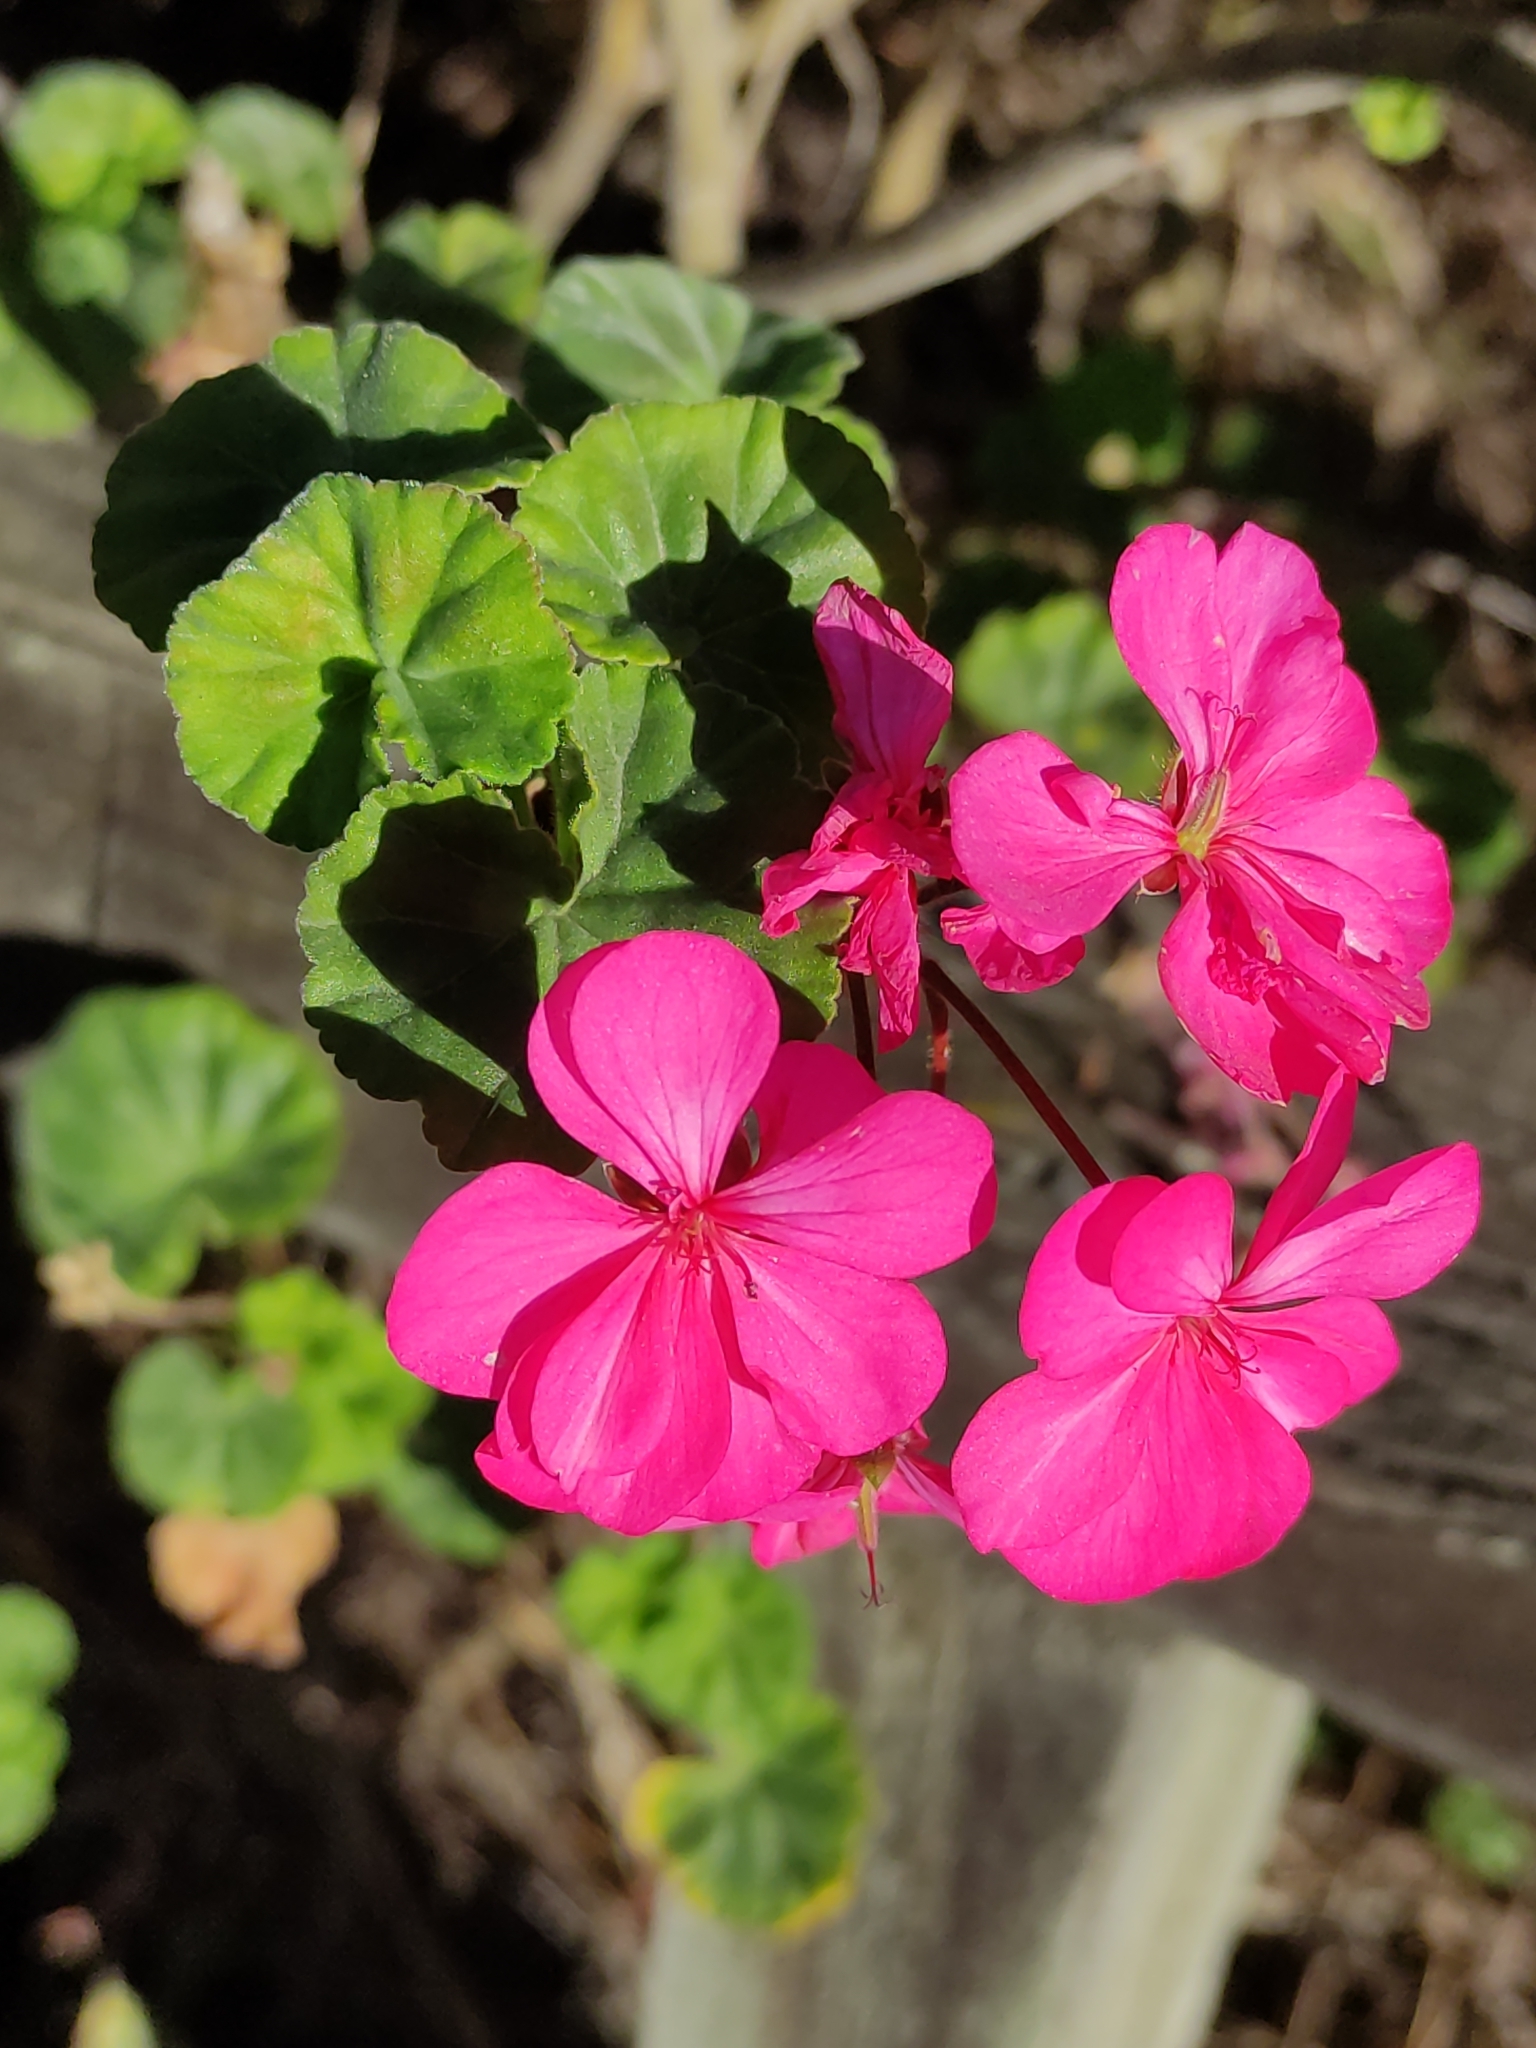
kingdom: Plantae
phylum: Tracheophyta
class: Magnoliopsida
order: Geraniales
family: Geraniaceae
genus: Pelargonium
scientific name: Pelargonium hybridum
